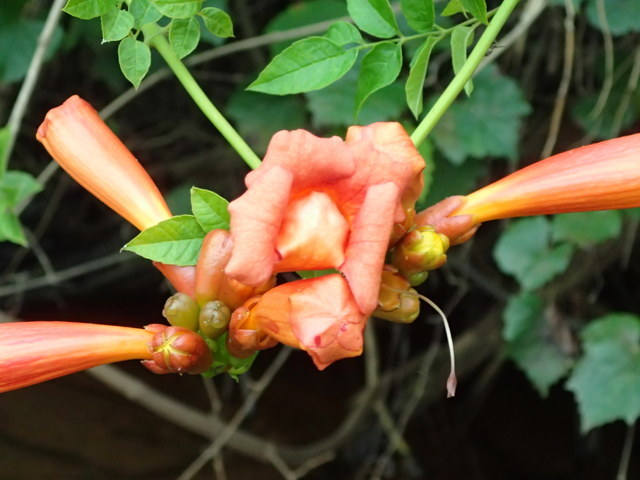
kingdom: Plantae
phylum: Tracheophyta
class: Magnoliopsida
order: Lamiales
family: Bignoniaceae
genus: Campsis
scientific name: Campsis radicans
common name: Trumpet-creeper
